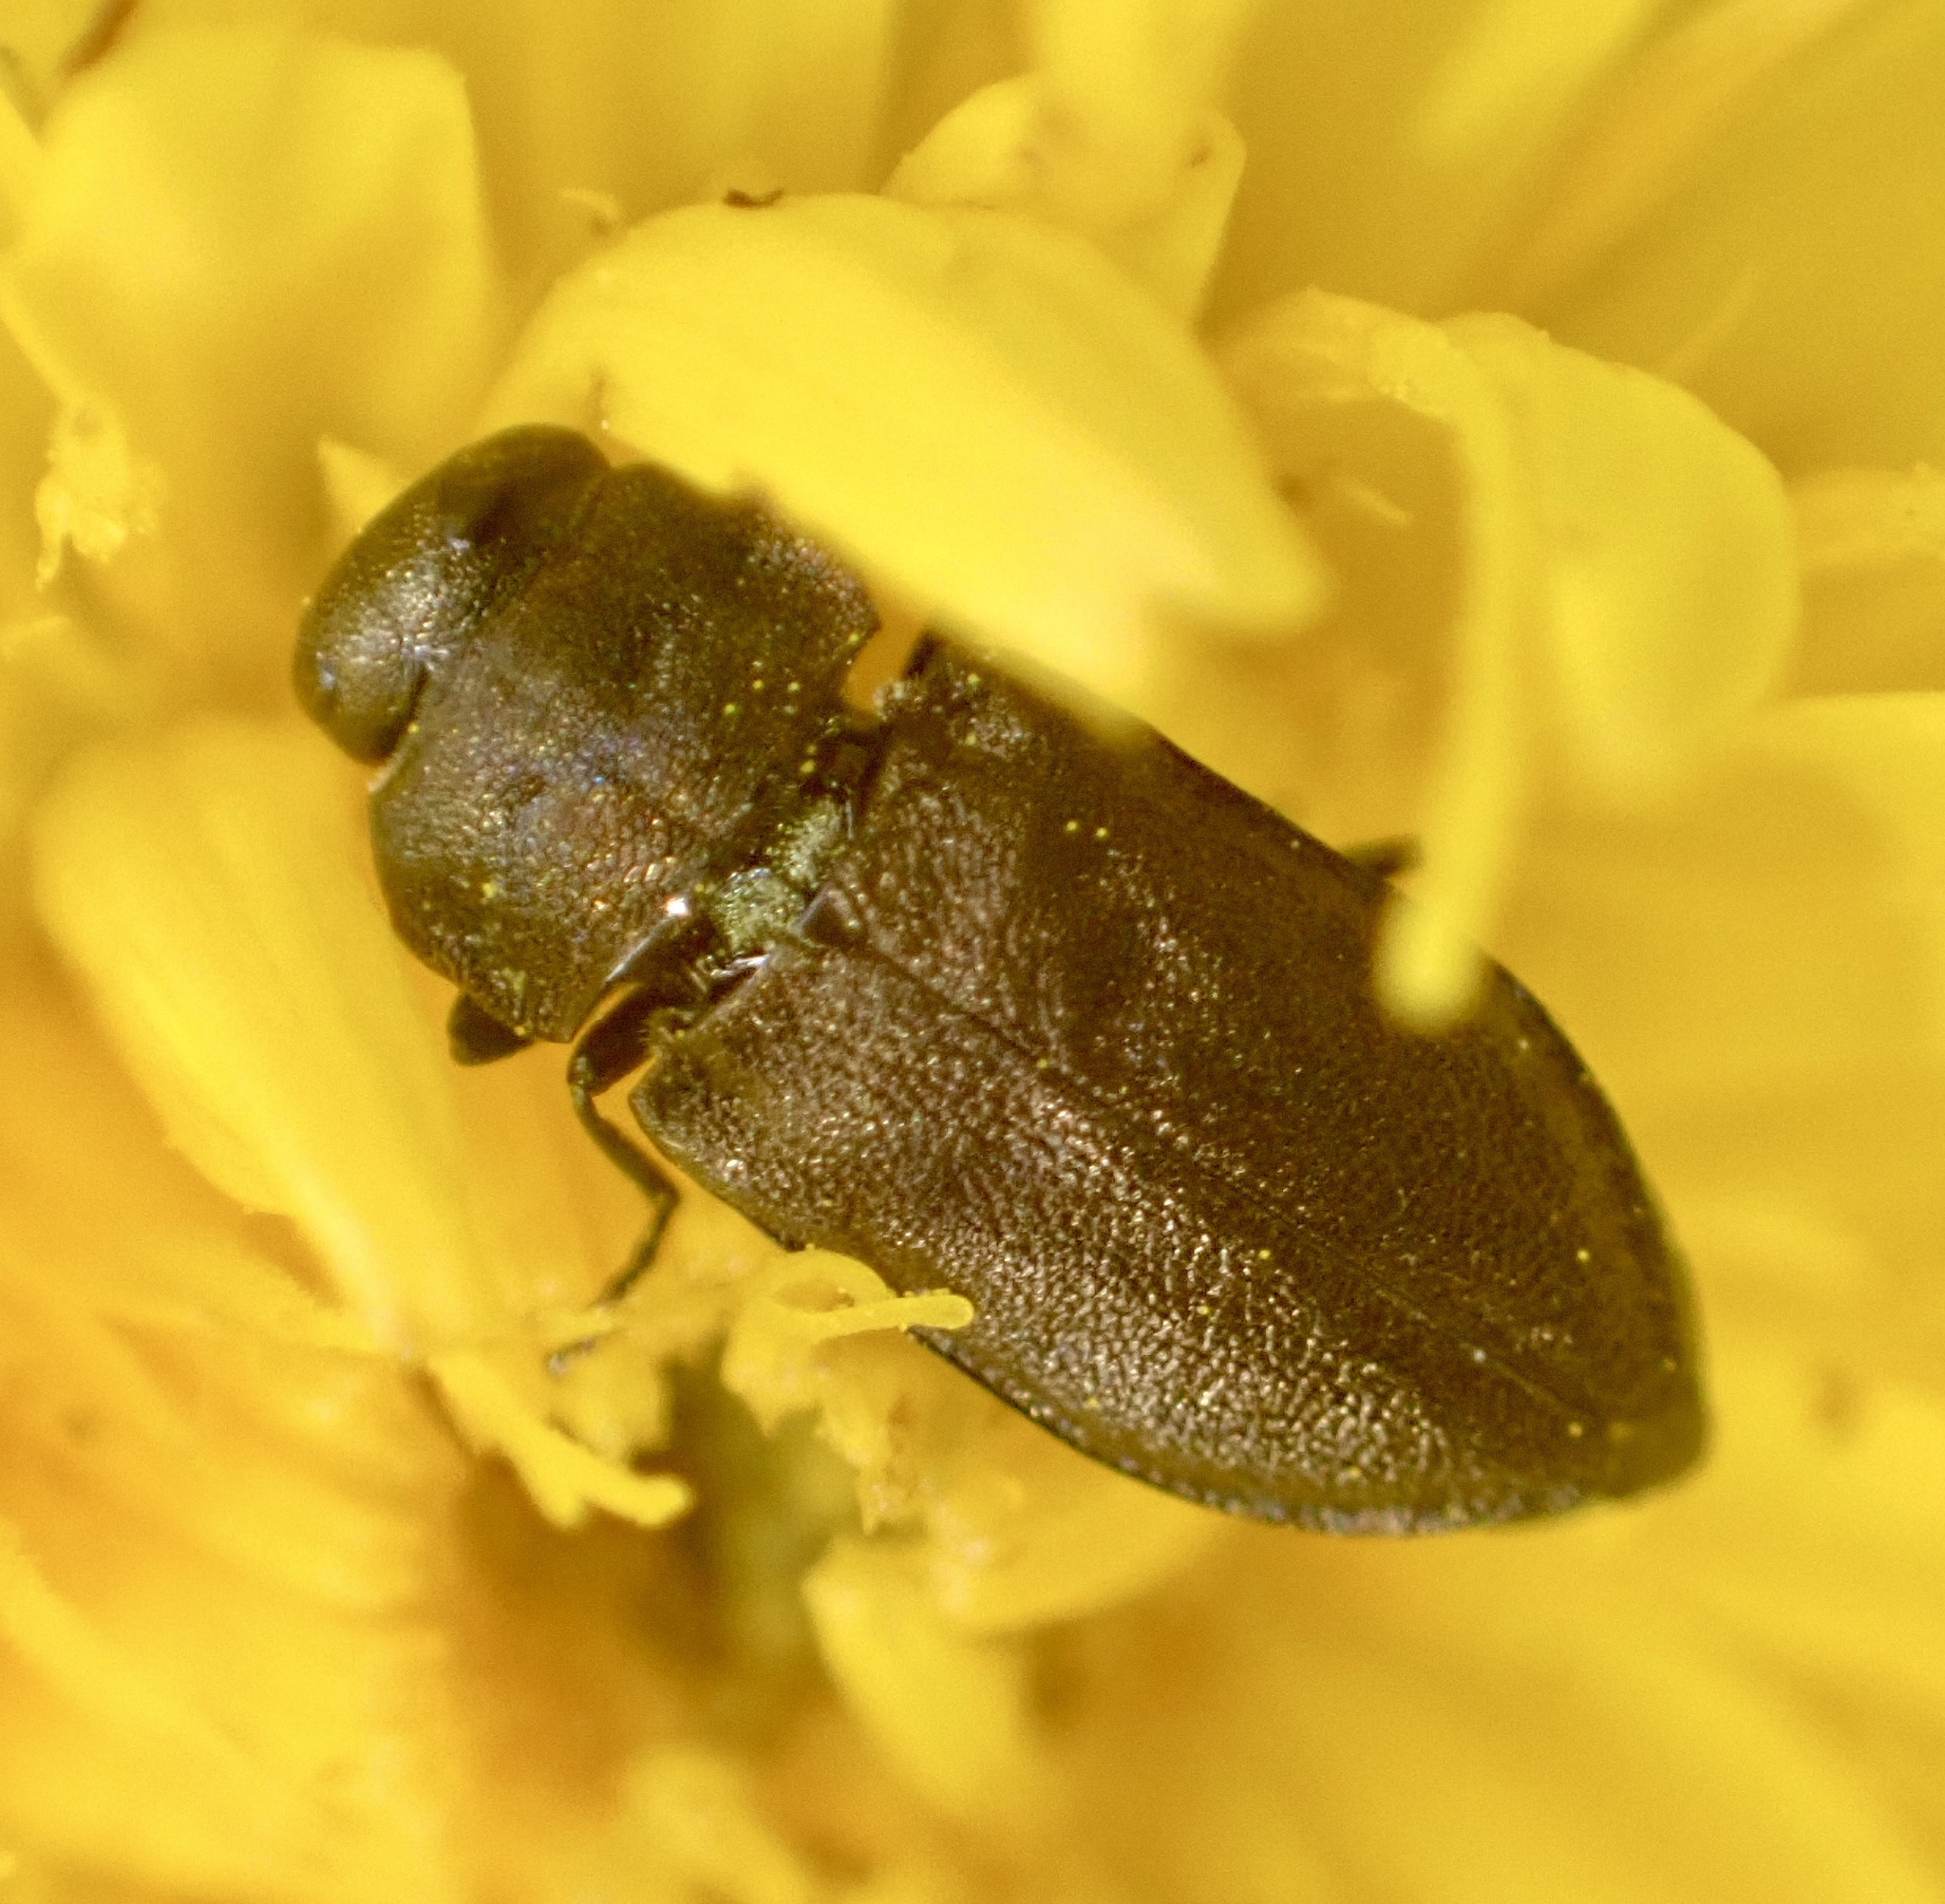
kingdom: Animalia
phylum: Arthropoda
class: Insecta
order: Coleoptera
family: Buprestidae
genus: Anthaxia
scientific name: Anthaxia quadripunctata
